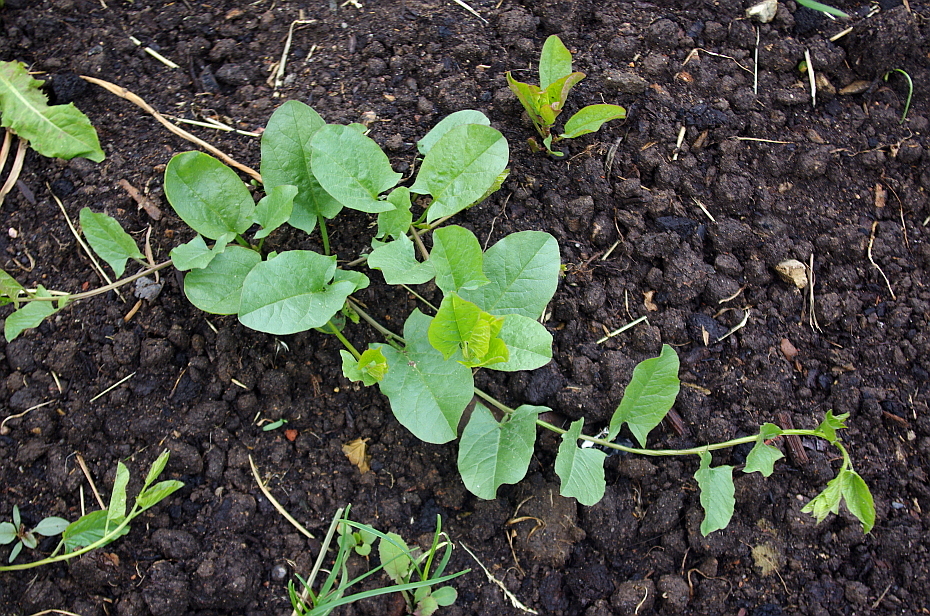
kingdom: Plantae
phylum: Tracheophyta
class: Magnoliopsida
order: Solanales
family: Convolvulaceae
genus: Convolvulus
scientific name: Convolvulus arvensis
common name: Field bindweed
